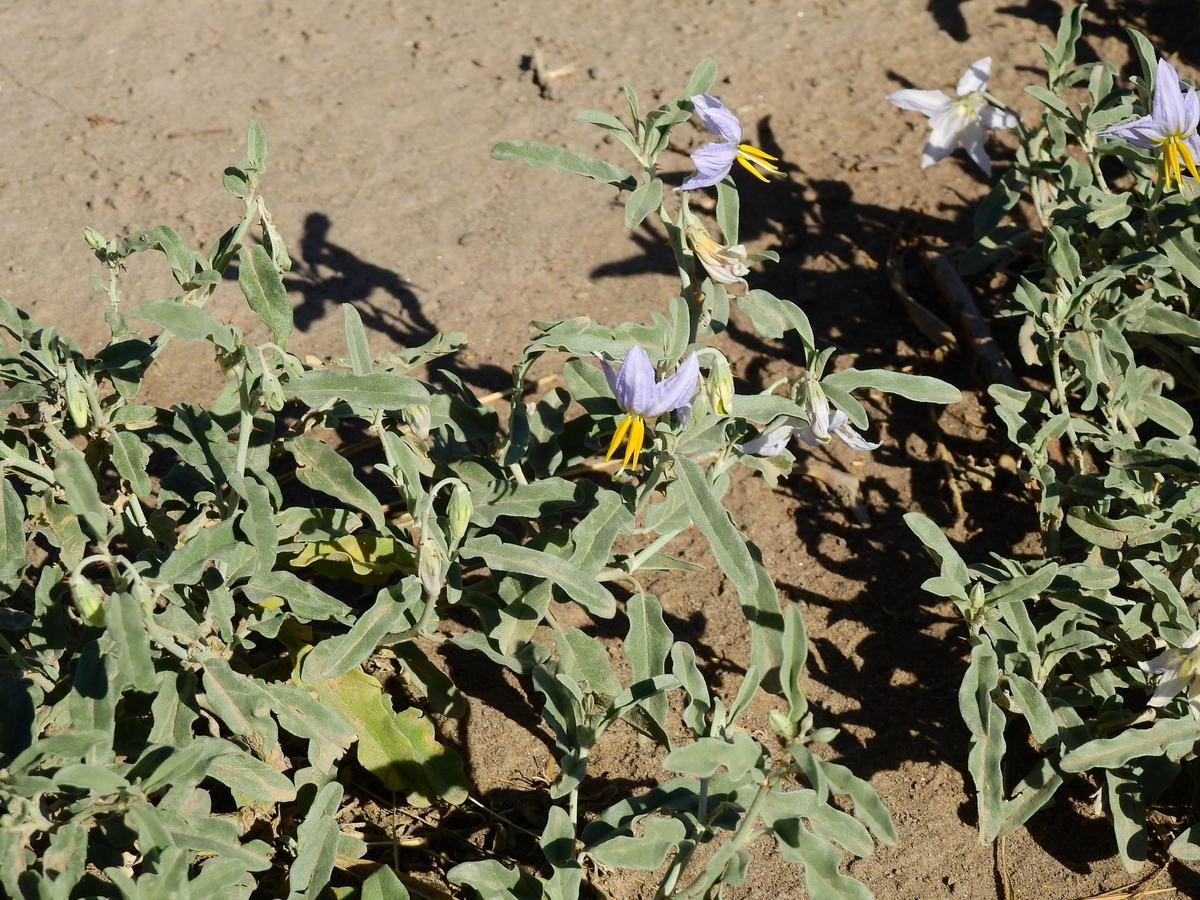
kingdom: Plantae
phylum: Tracheophyta
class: Magnoliopsida
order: Solanales
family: Solanaceae
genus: Solanum
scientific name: Solanum elaeagnifolium
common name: Silverleaf nightshade
